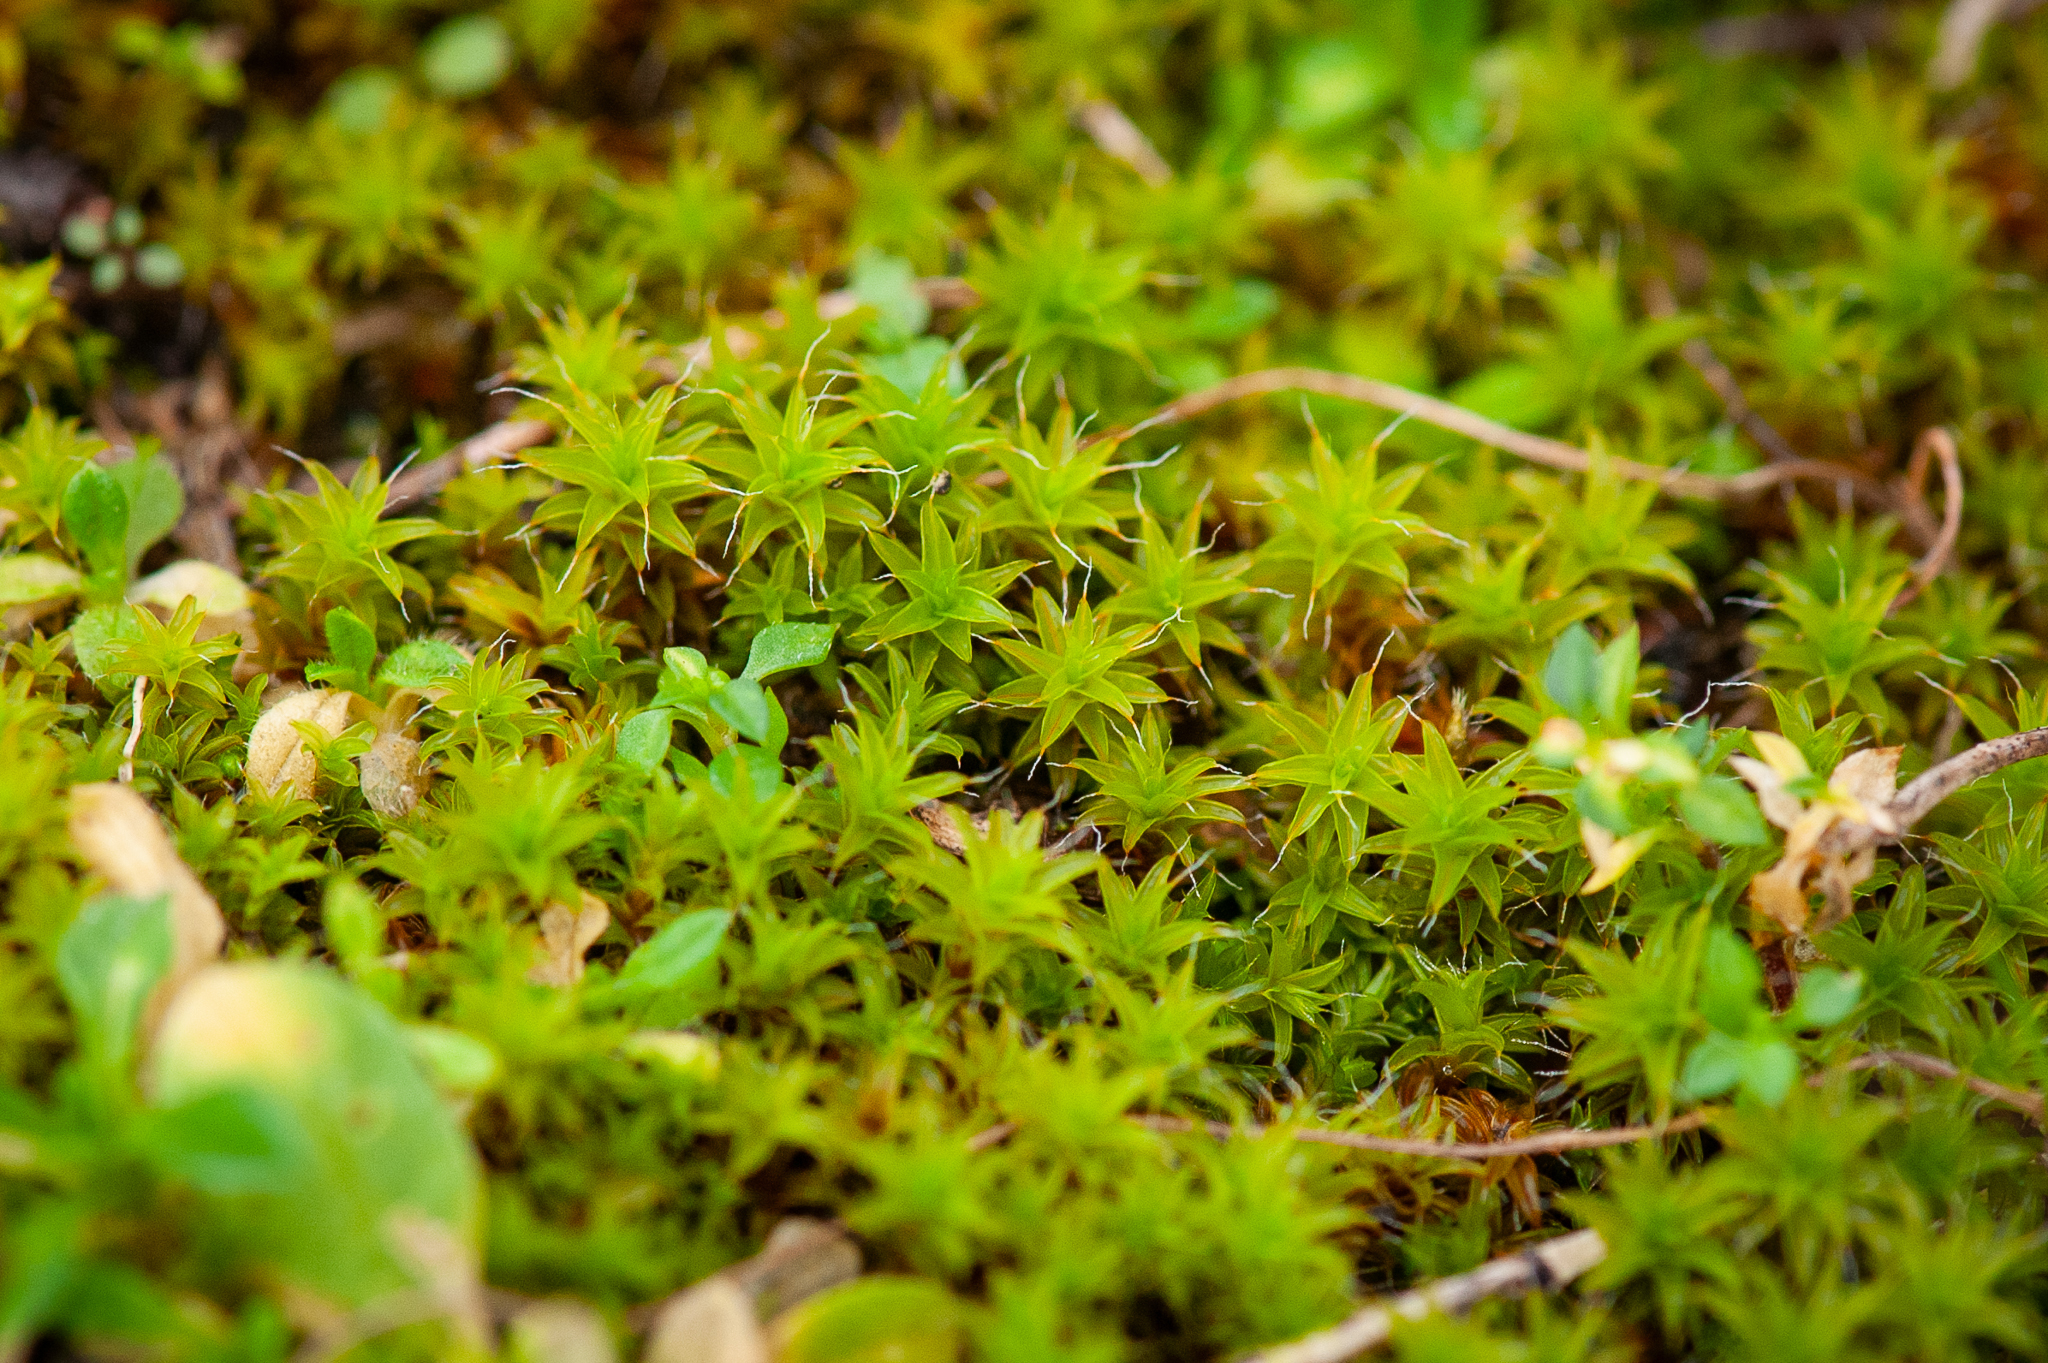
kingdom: Plantae
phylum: Bryophyta
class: Bryopsida
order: Pottiales
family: Pottiaceae
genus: Syntrichia
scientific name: Syntrichia ruralis
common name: Sidewalk screw moss
